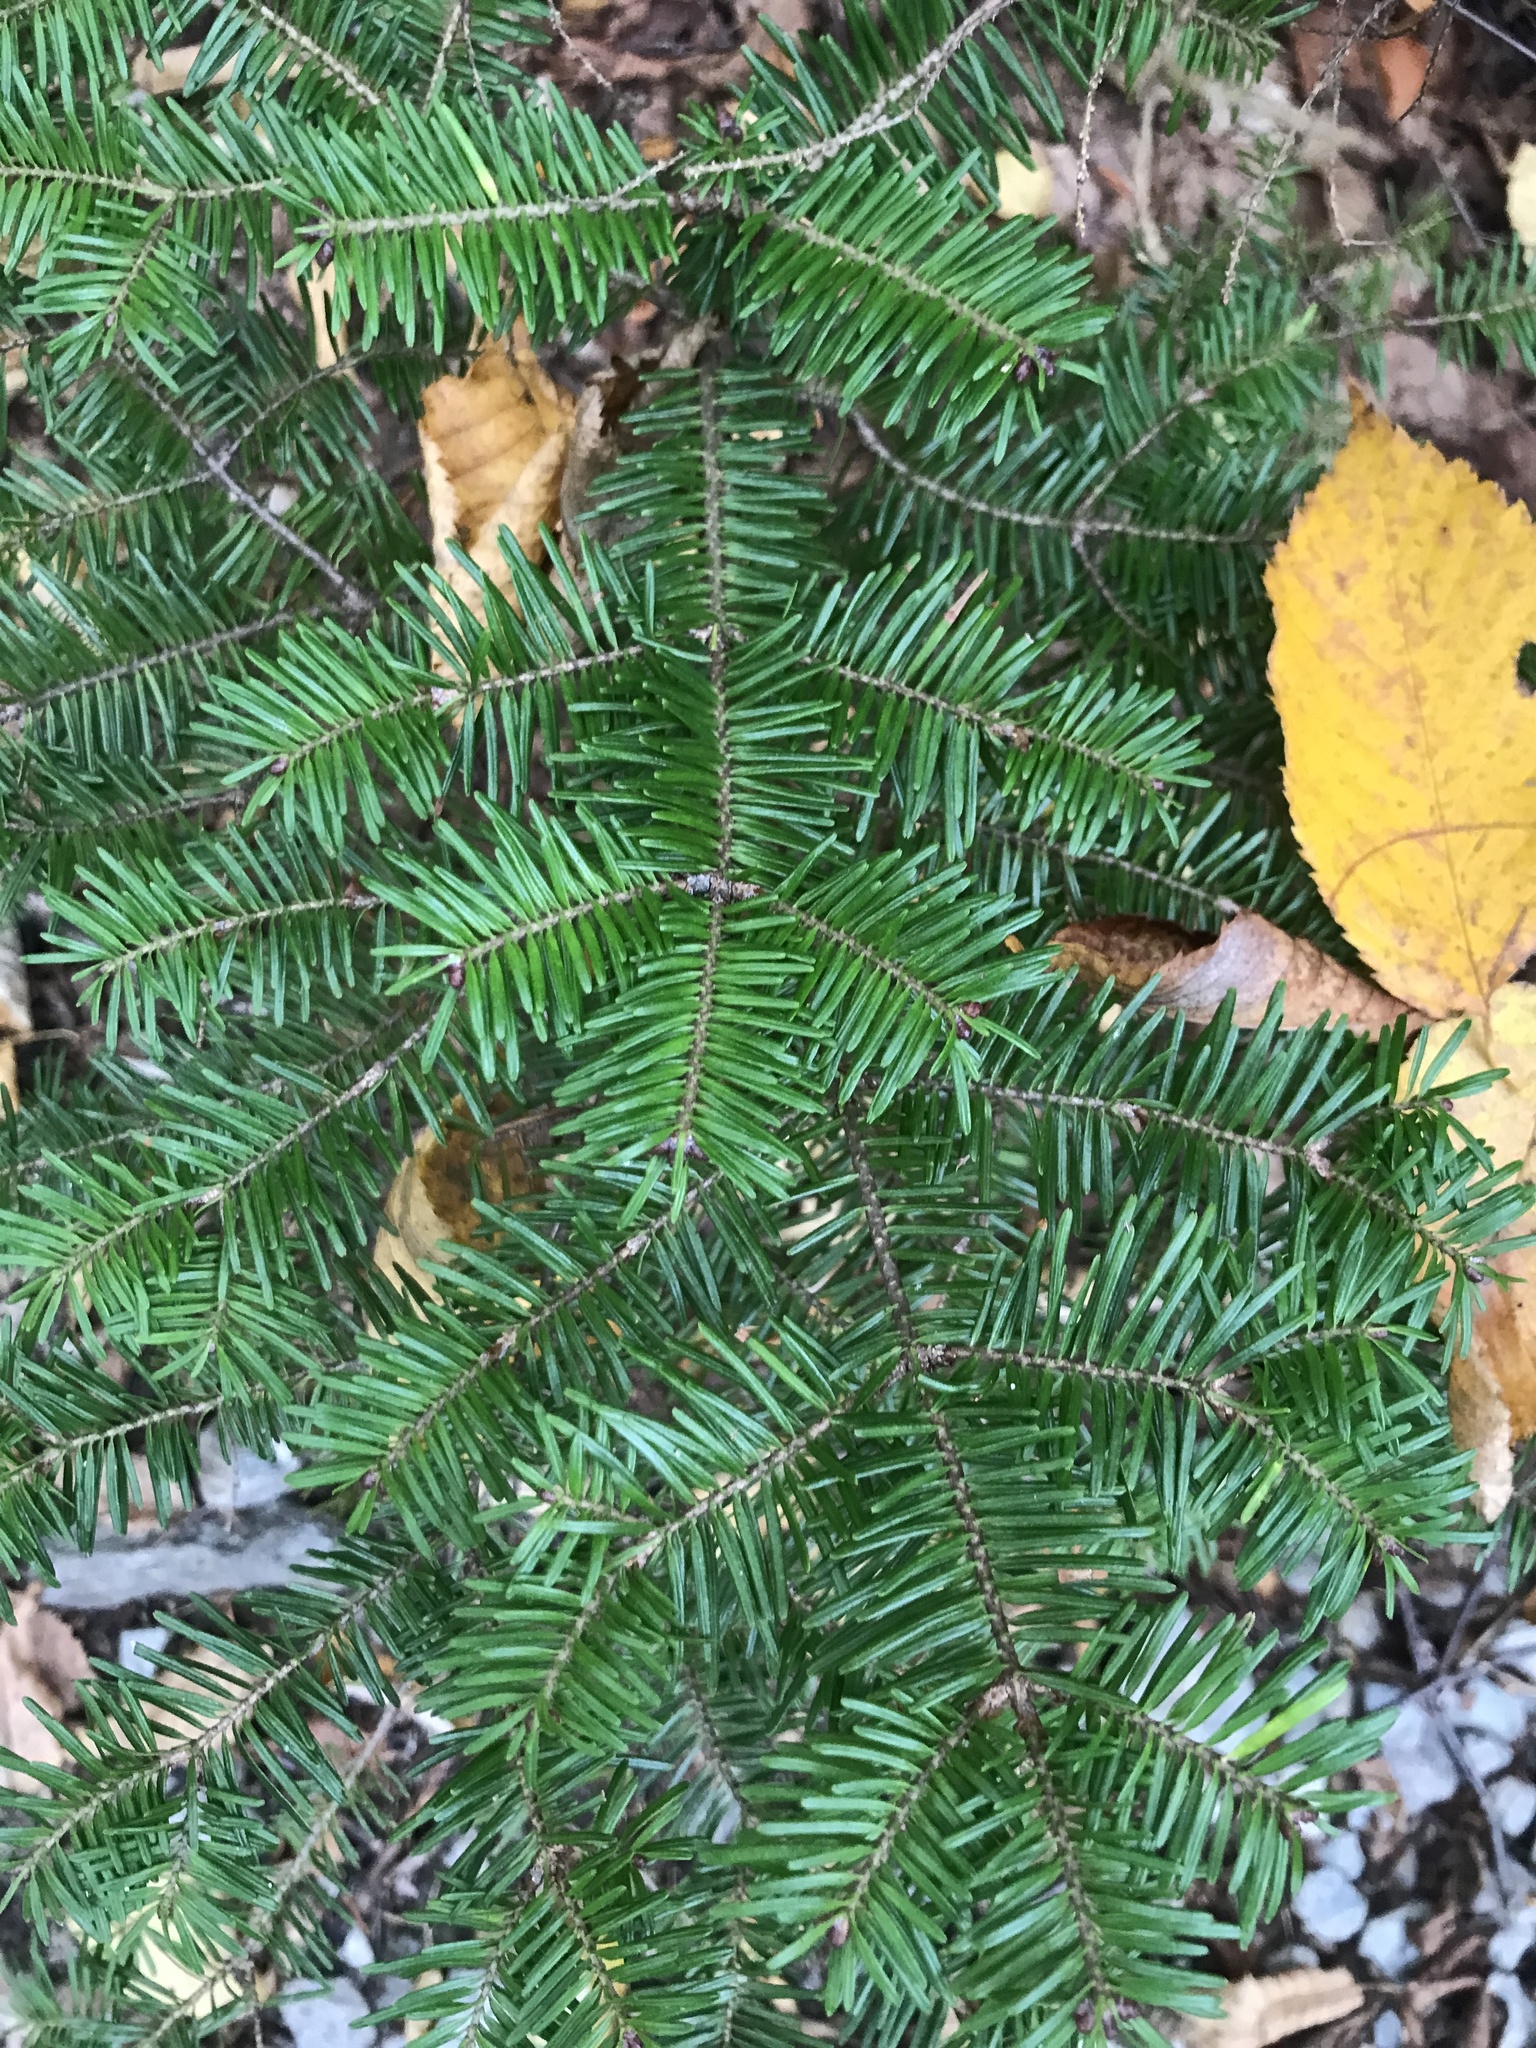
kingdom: Plantae
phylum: Tracheophyta
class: Pinopsida
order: Pinales
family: Pinaceae
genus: Abies
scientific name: Abies balsamea
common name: Balsam fir
